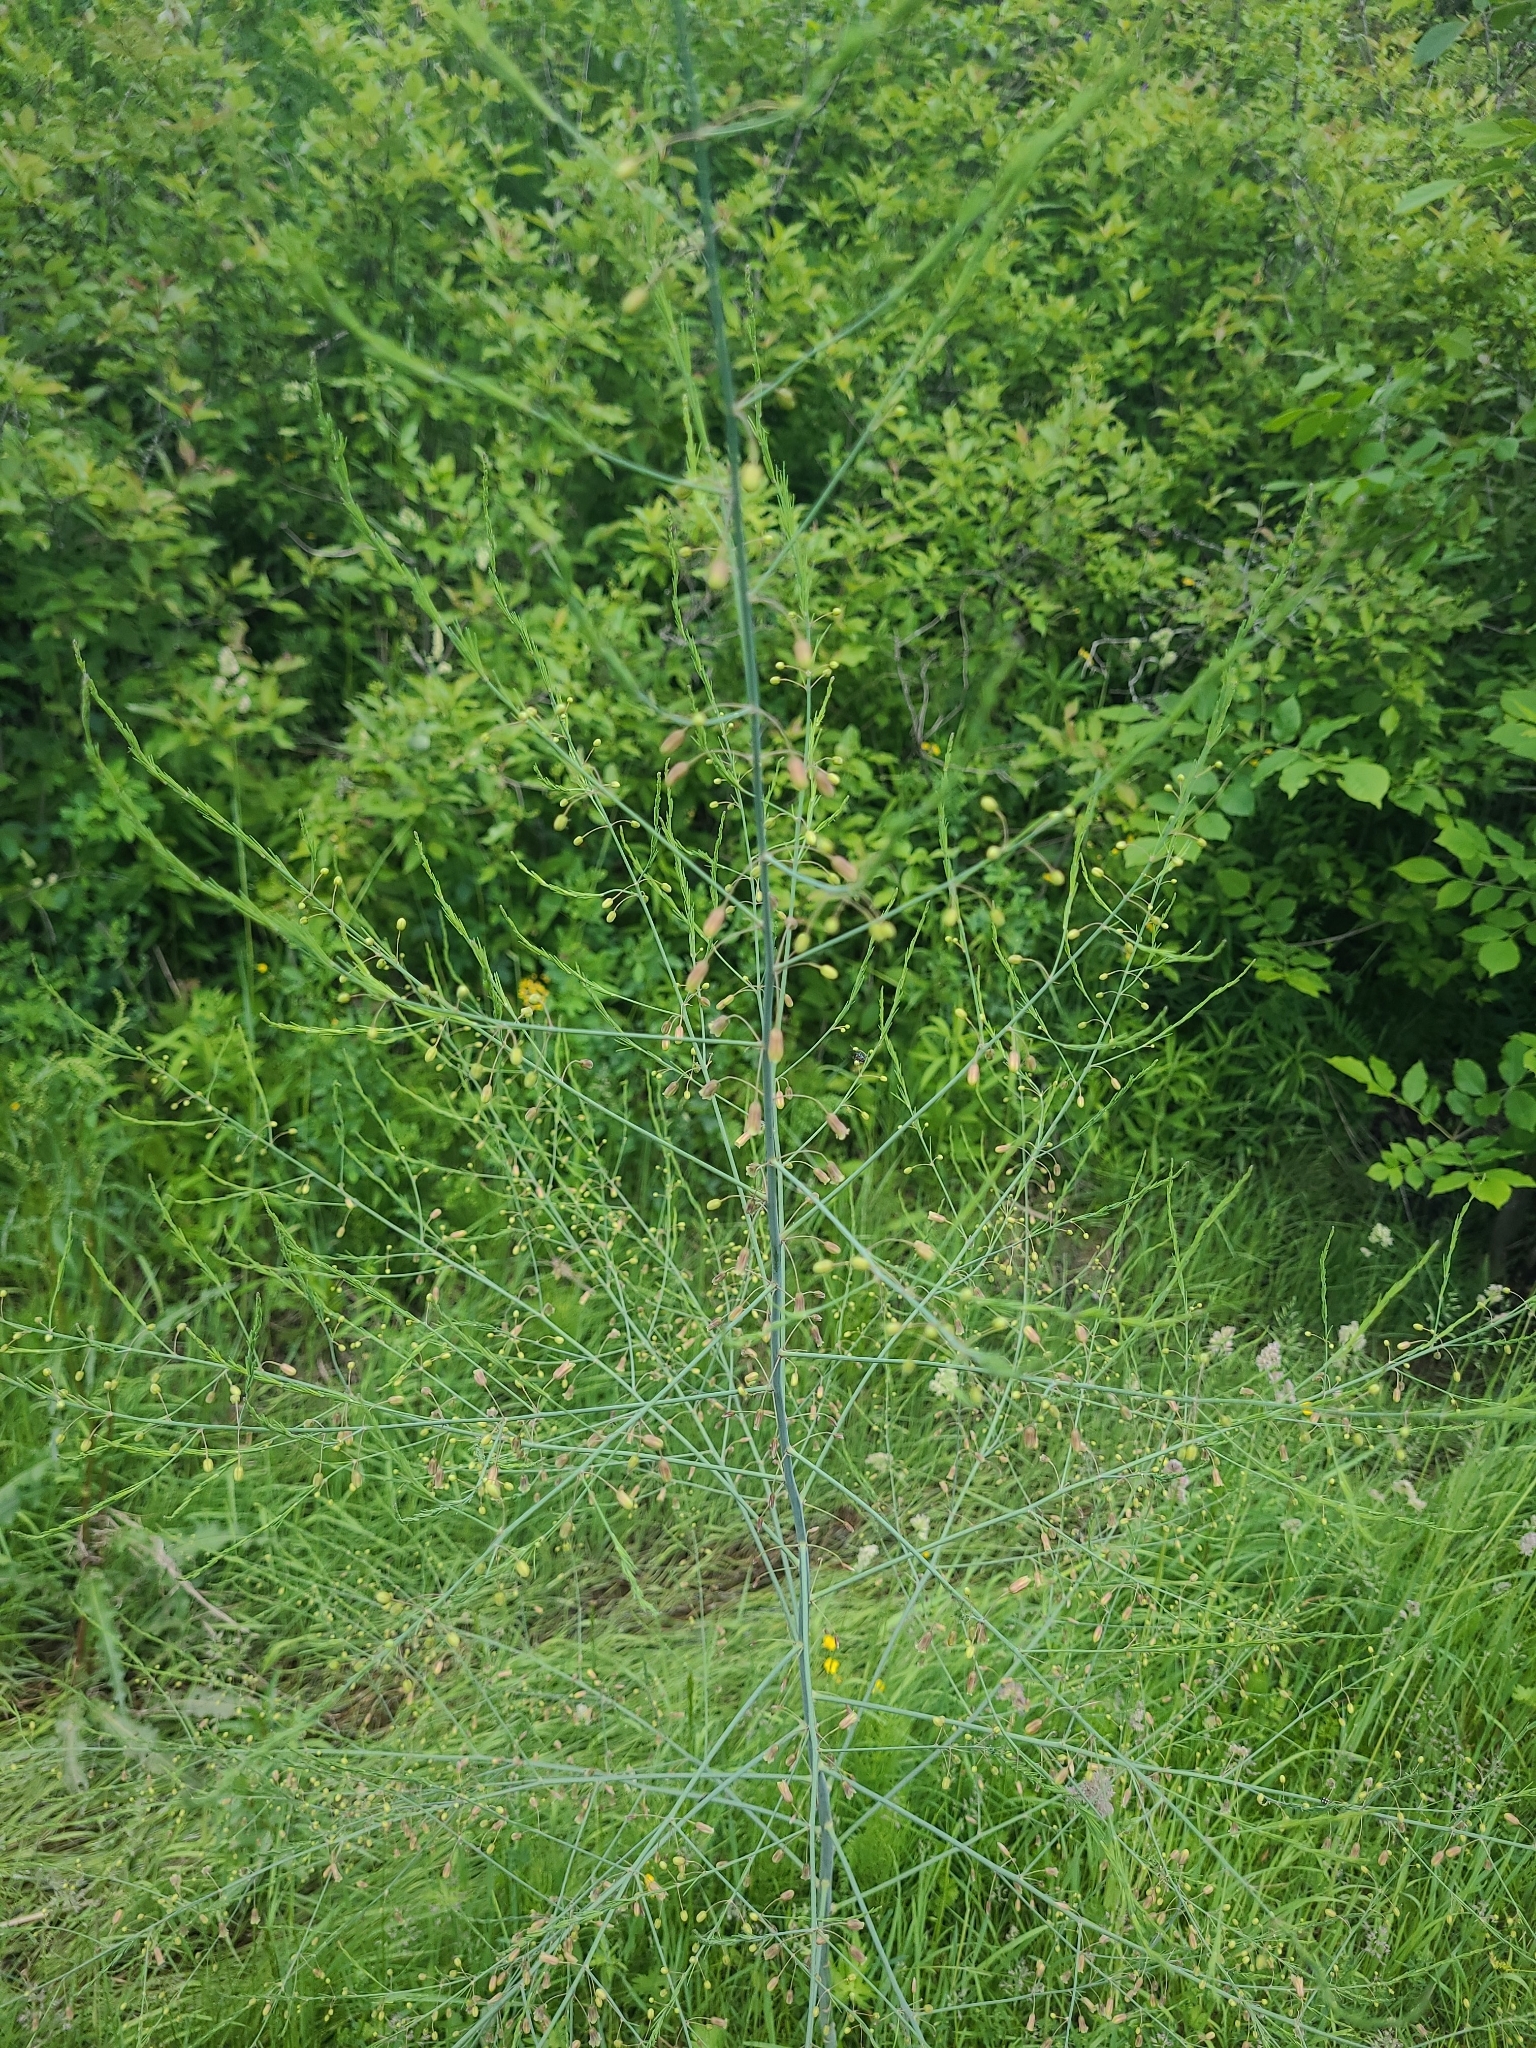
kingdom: Plantae
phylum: Tracheophyta
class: Liliopsida
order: Asparagales
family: Asparagaceae
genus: Asparagus
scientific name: Asparagus officinalis
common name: Garden asparagus
